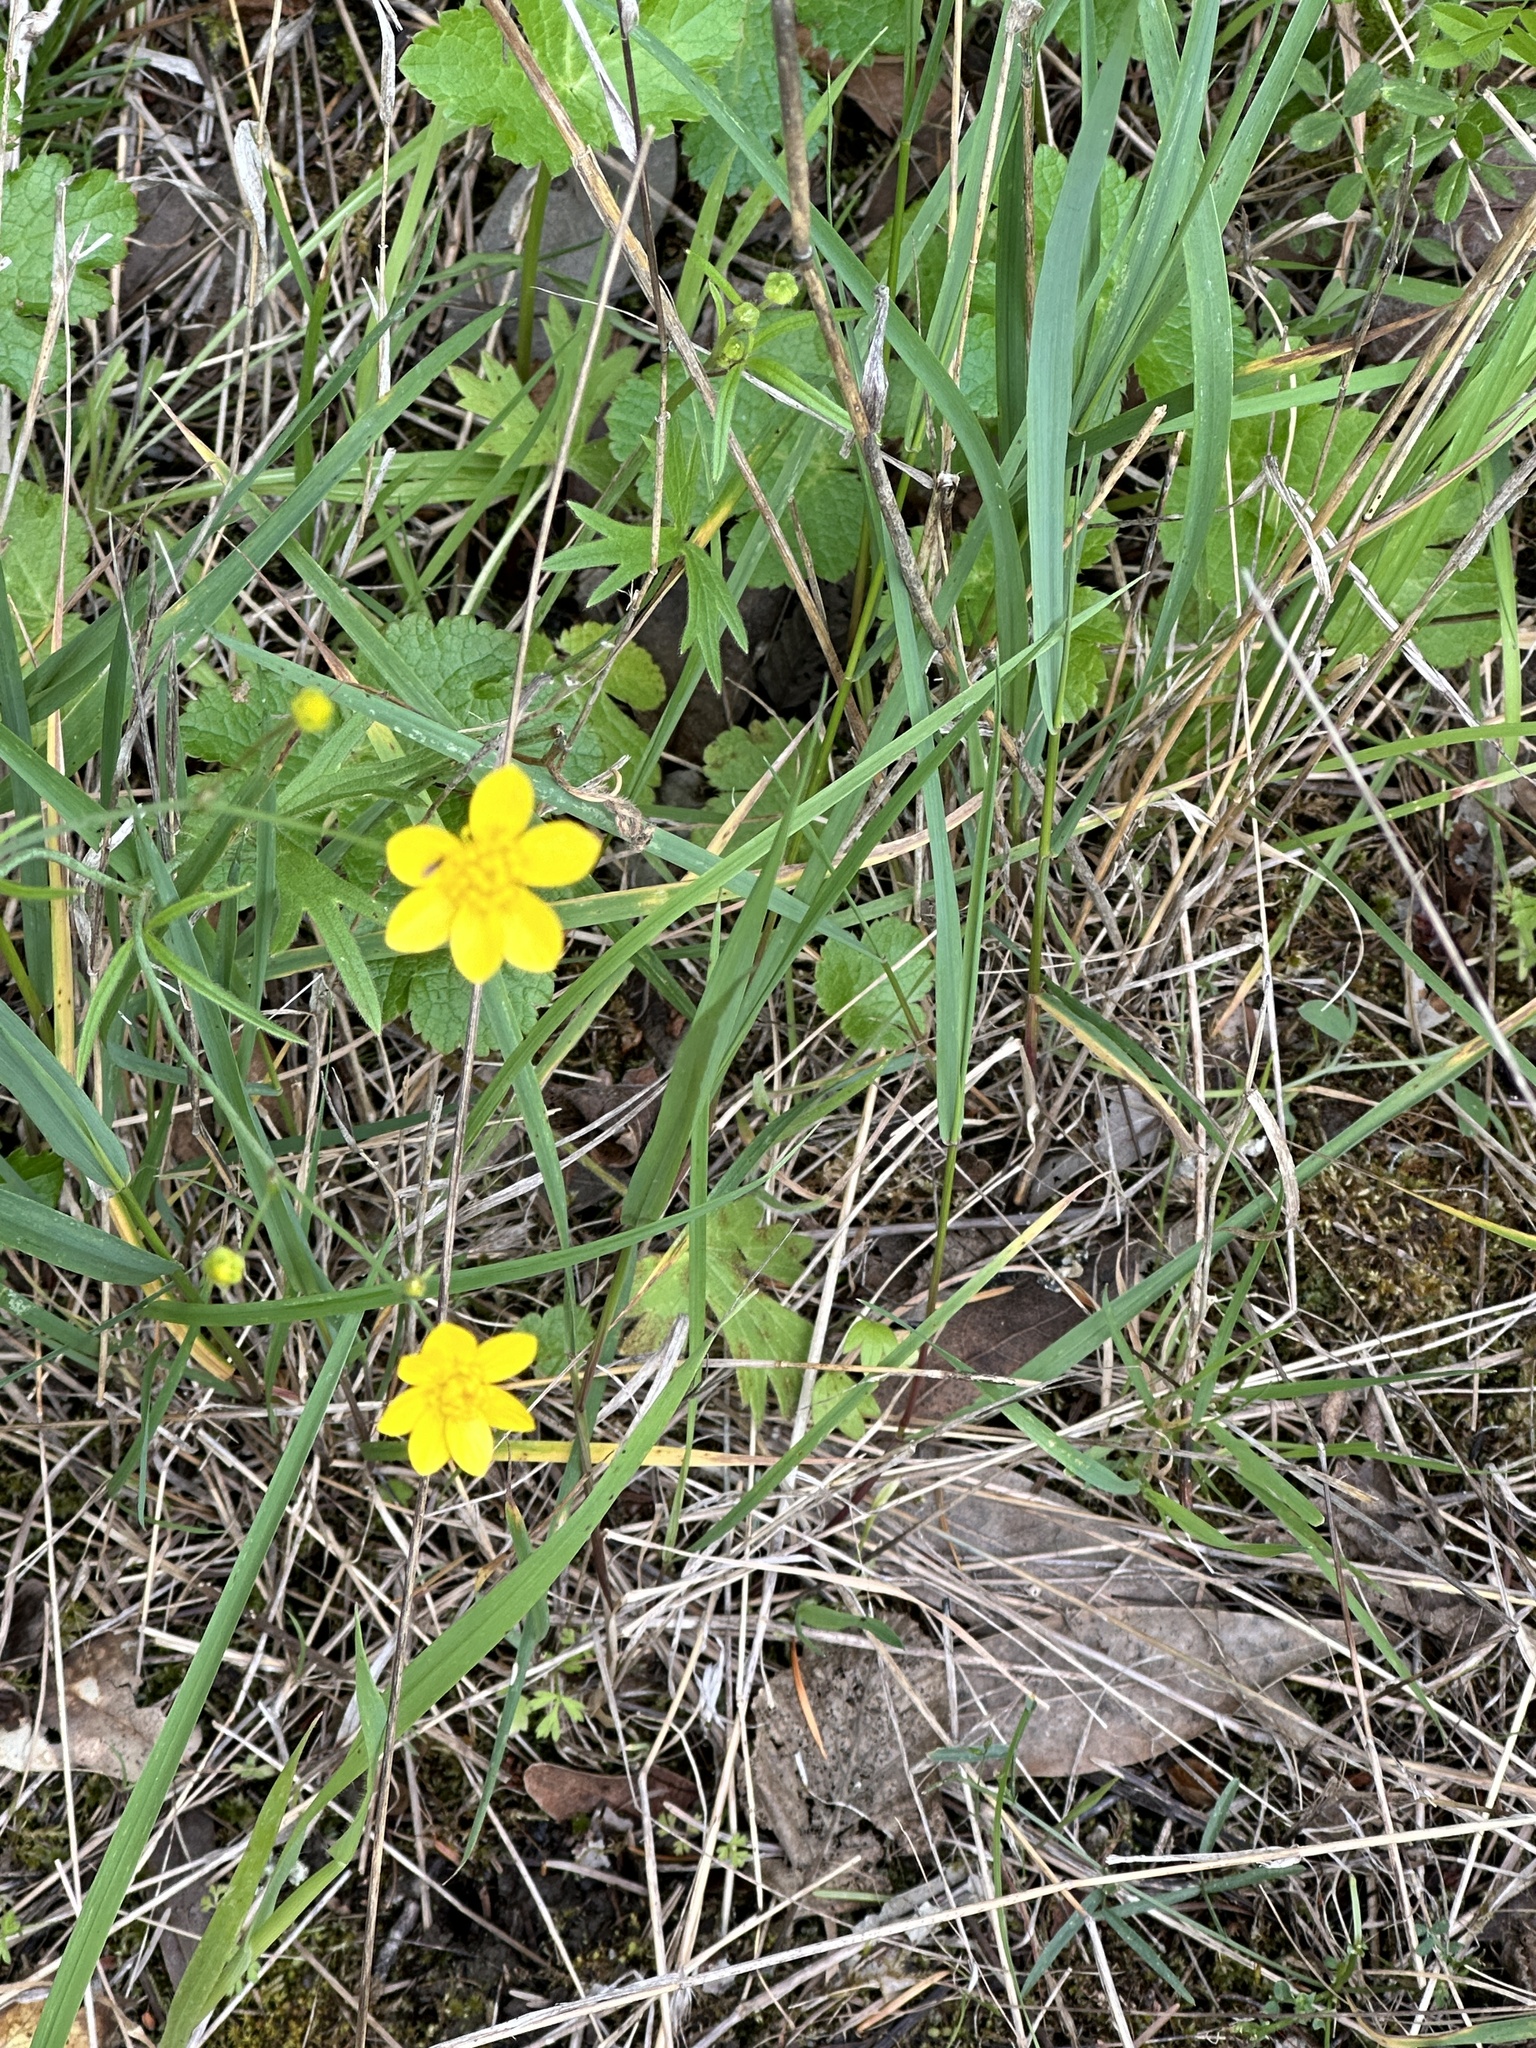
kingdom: Plantae
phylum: Tracheophyta
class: Magnoliopsida
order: Ranunculales
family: Ranunculaceae
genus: Ranunculus
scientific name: Ranunculus occidentalis
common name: Western buttercup
